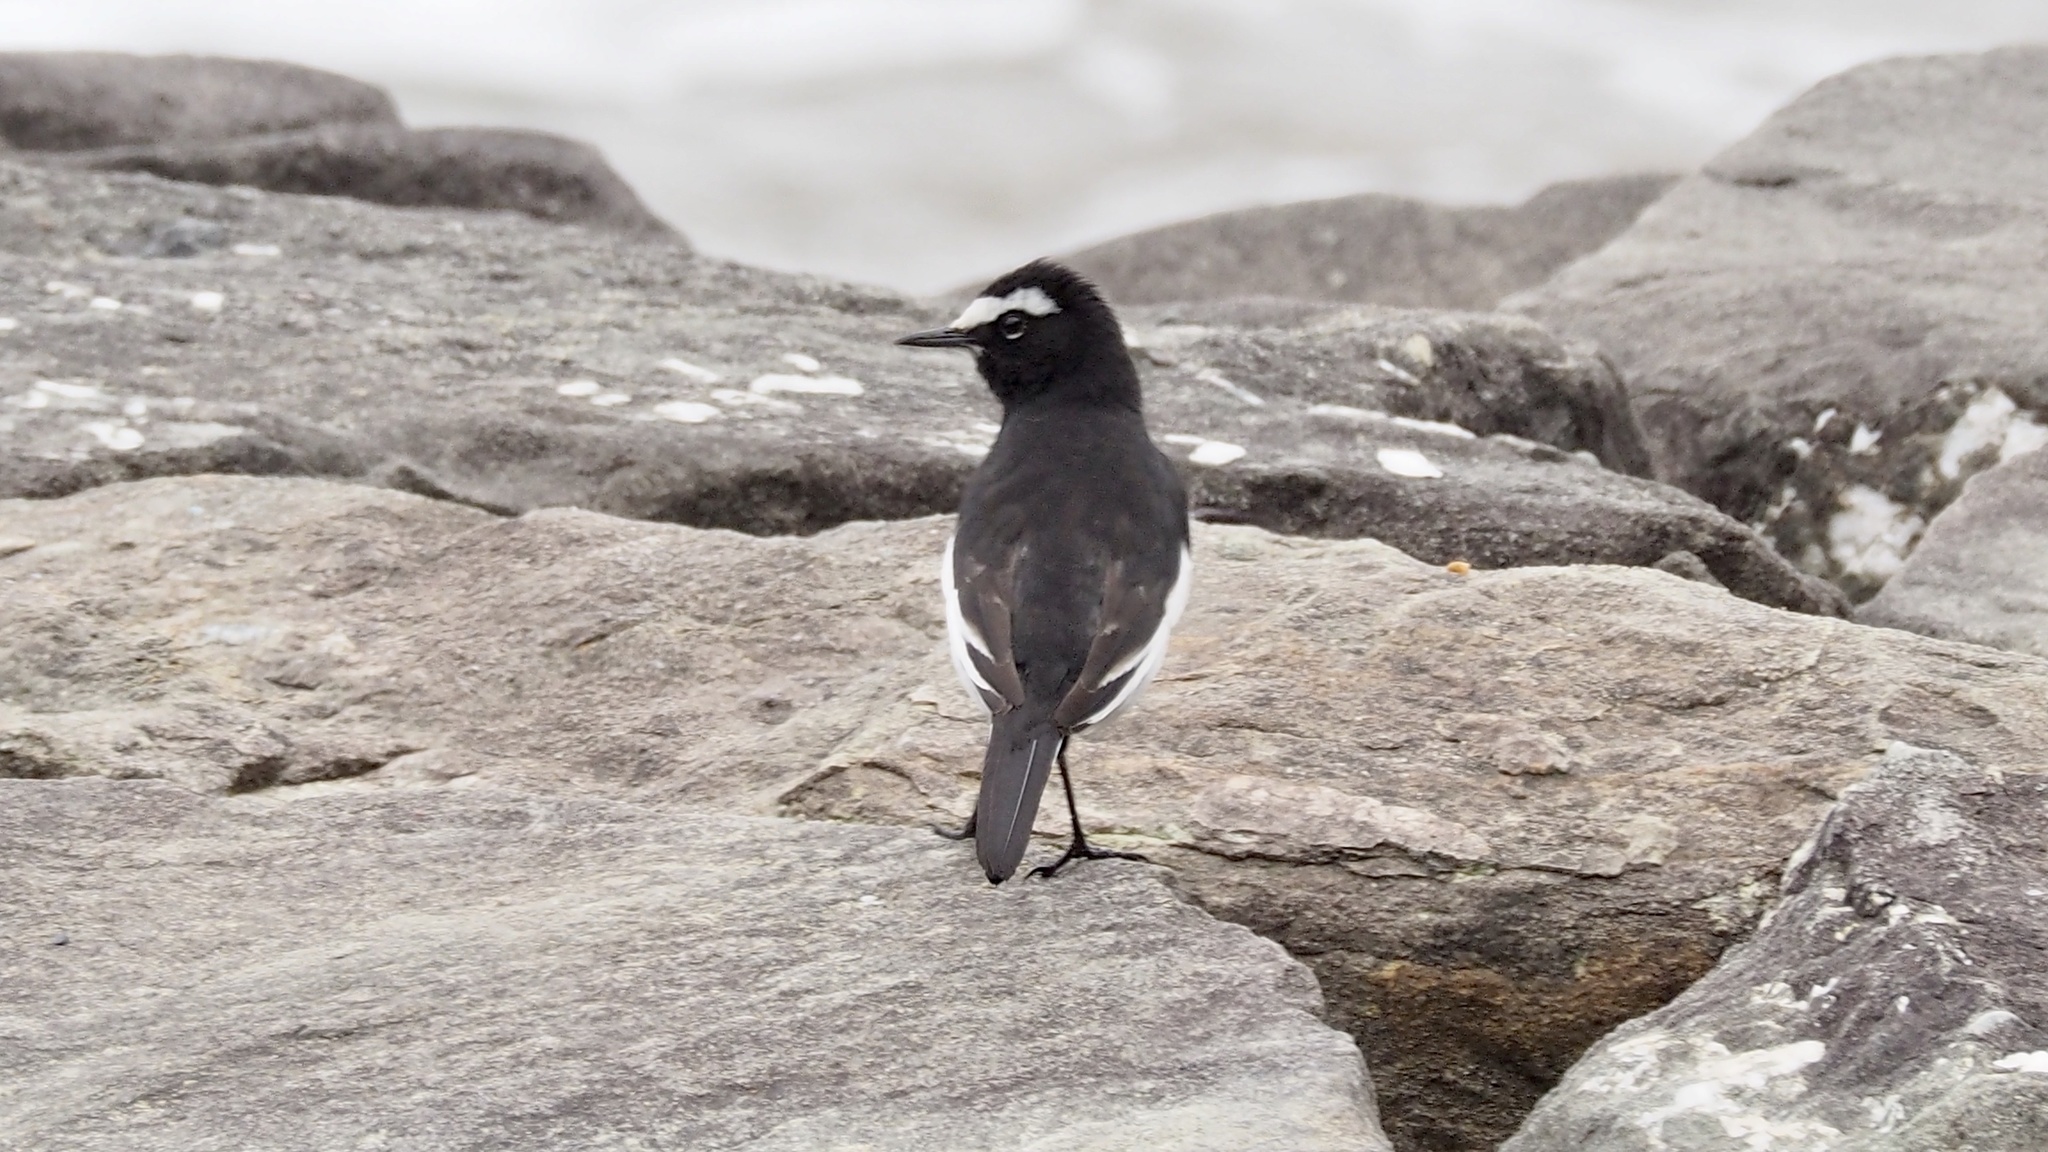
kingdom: Animalia
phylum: Chordata
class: Aves
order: Passeriformes
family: Motacillidae
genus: Motacilla
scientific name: Motacilla grandis
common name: Japanese wagtail
